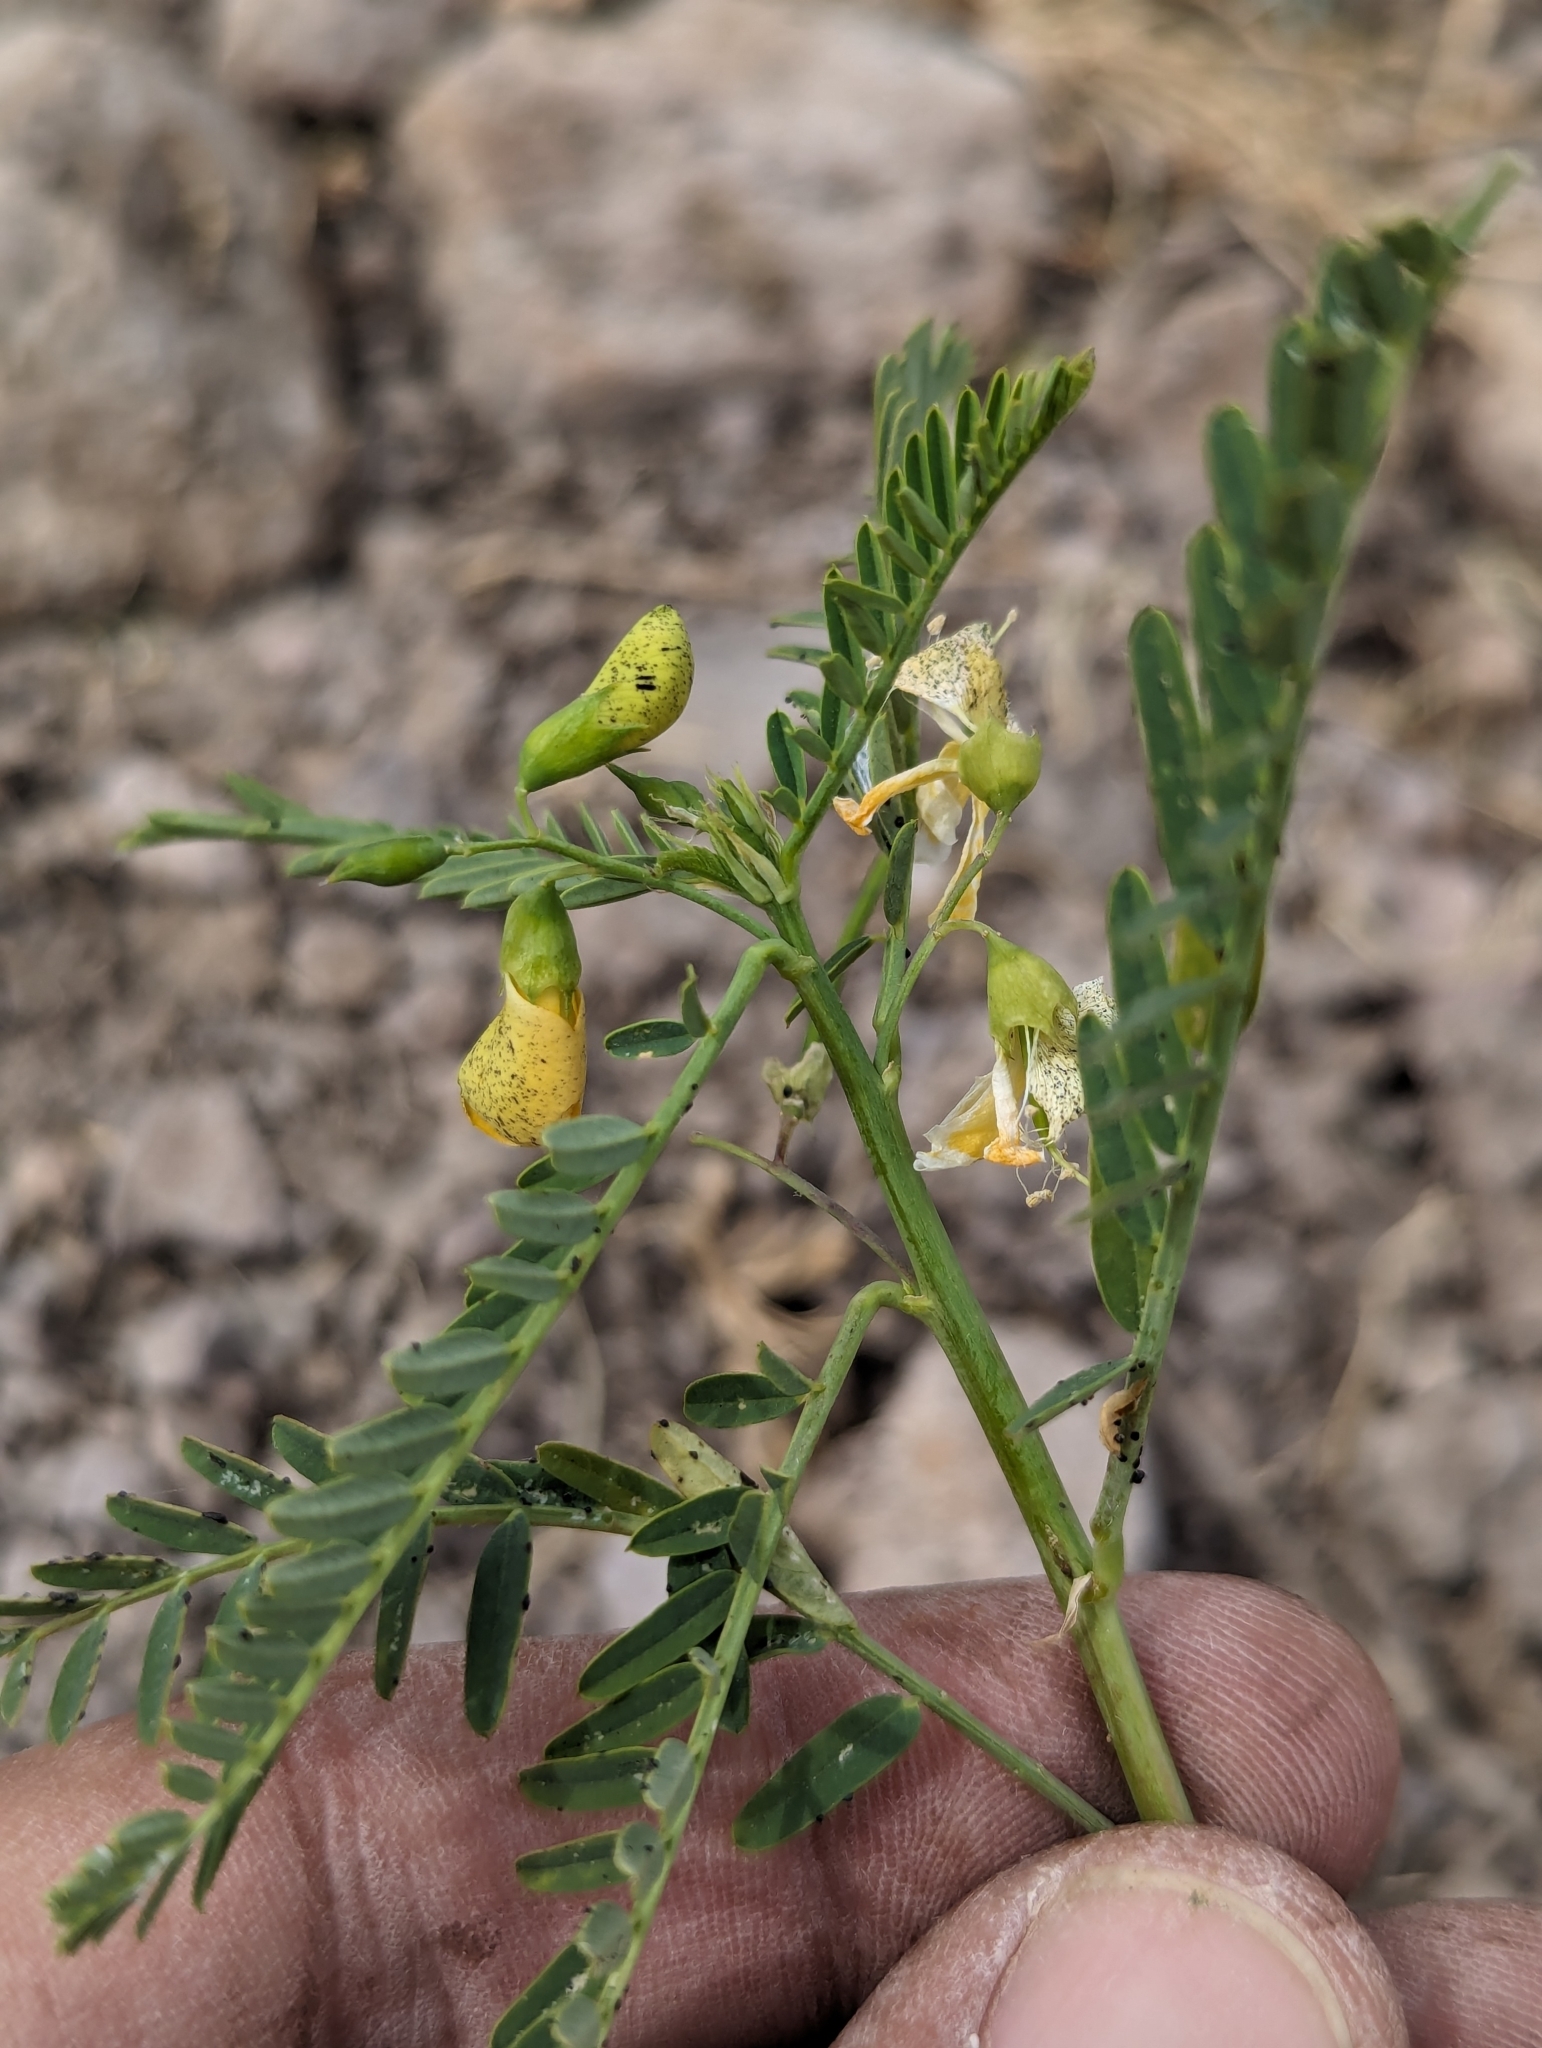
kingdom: Plantae
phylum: Tracheophyta
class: Magnoliopsida
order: Fabales
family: Fabaceae
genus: Sesbania
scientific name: Sesbania herbacea
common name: Bigpod sesbania
